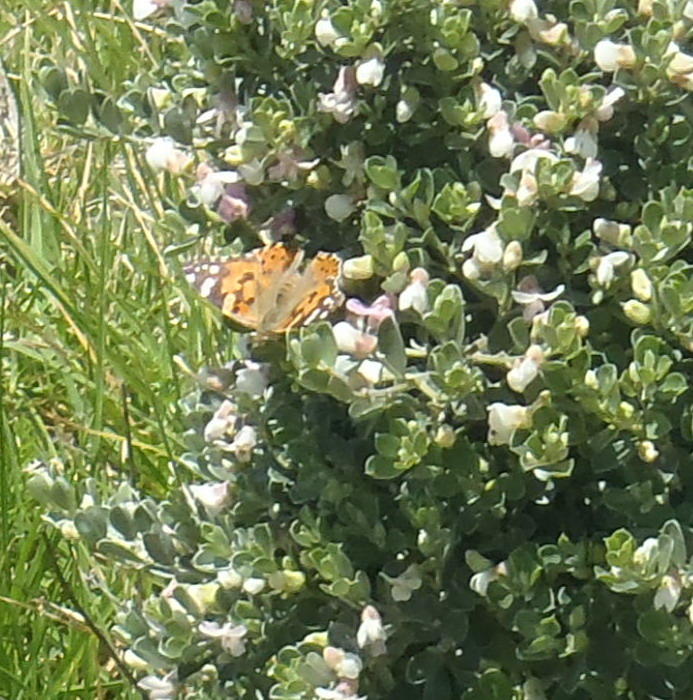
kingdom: Animalia
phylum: Arthropoda
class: Insecta
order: Lepidoptera
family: Nymphalidae
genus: Vanessa
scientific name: Vanessa cardui
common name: Painted lady
